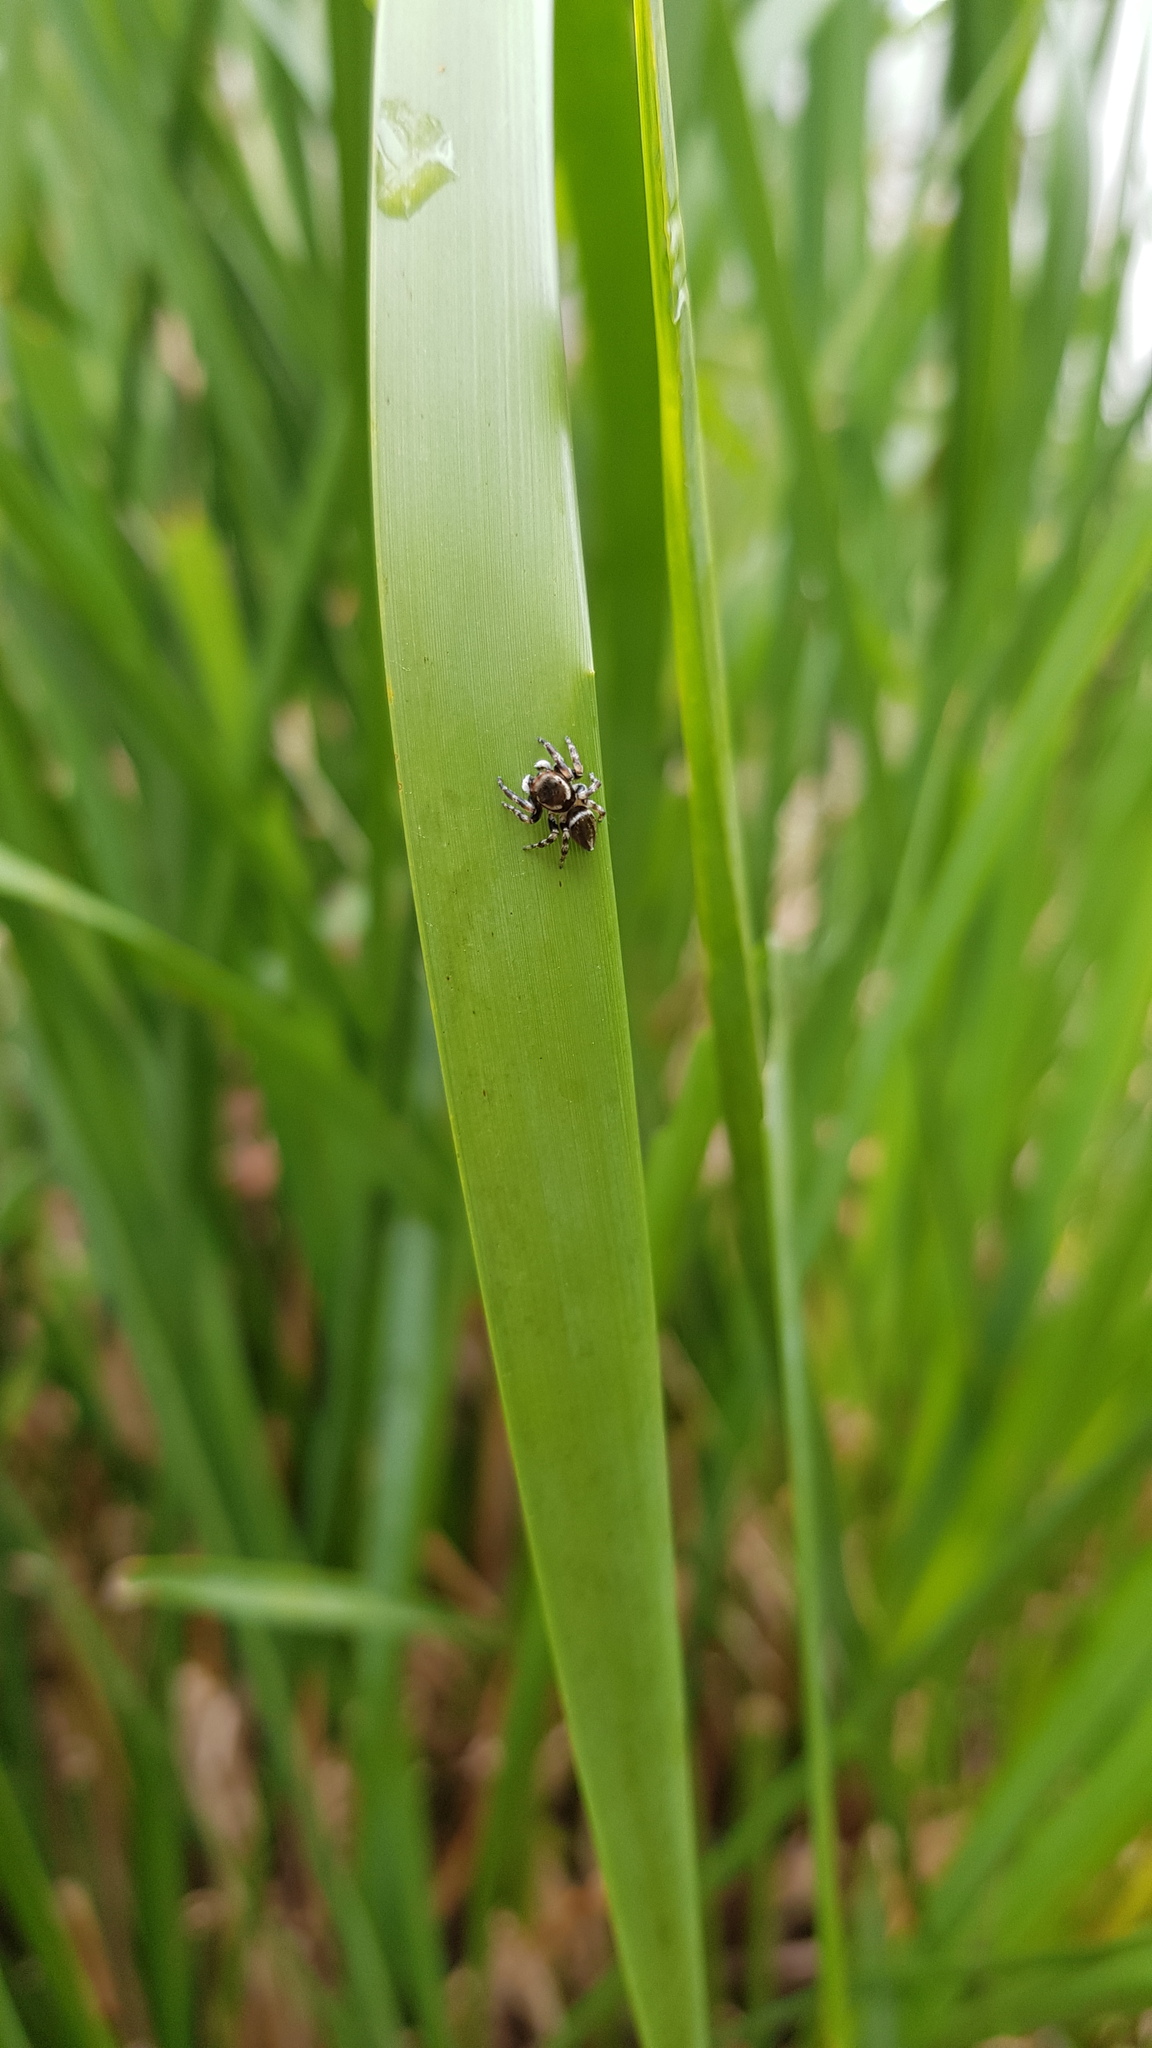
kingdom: Animalia
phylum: Arthropoda
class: Arachnida
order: Araneae
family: Salticidae
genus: Maratus
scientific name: Maratus scutulatus
